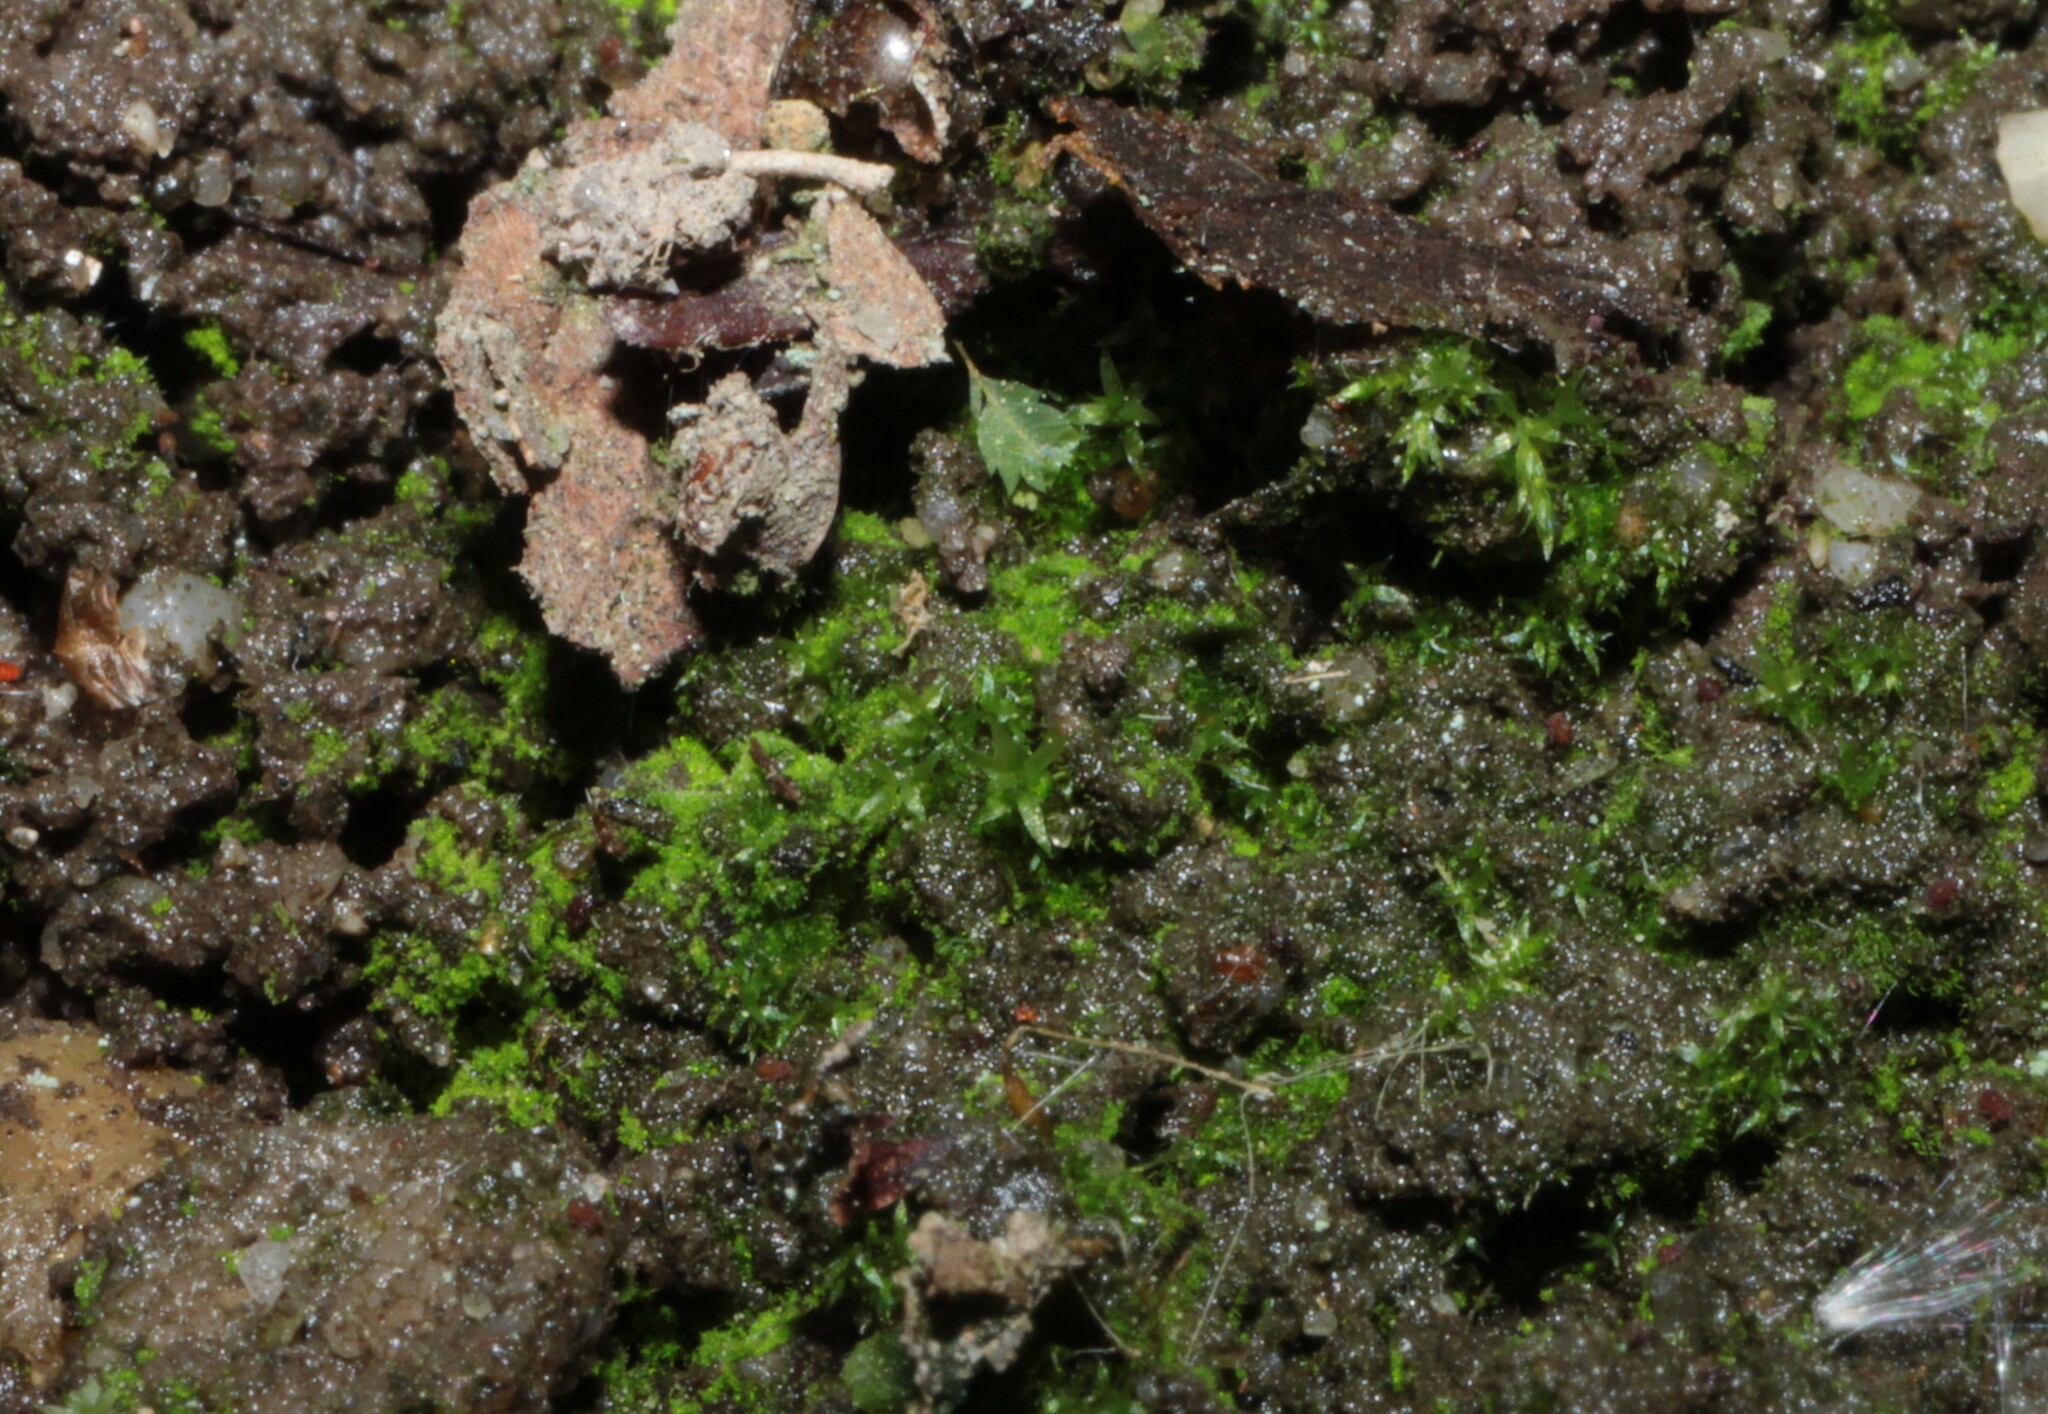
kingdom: Plantae
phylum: Bryophyta
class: Bryopsida
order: Dicranales
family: Schistostegaceae
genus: Schistostega
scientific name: Schistostega pennata
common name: Luminous moss
